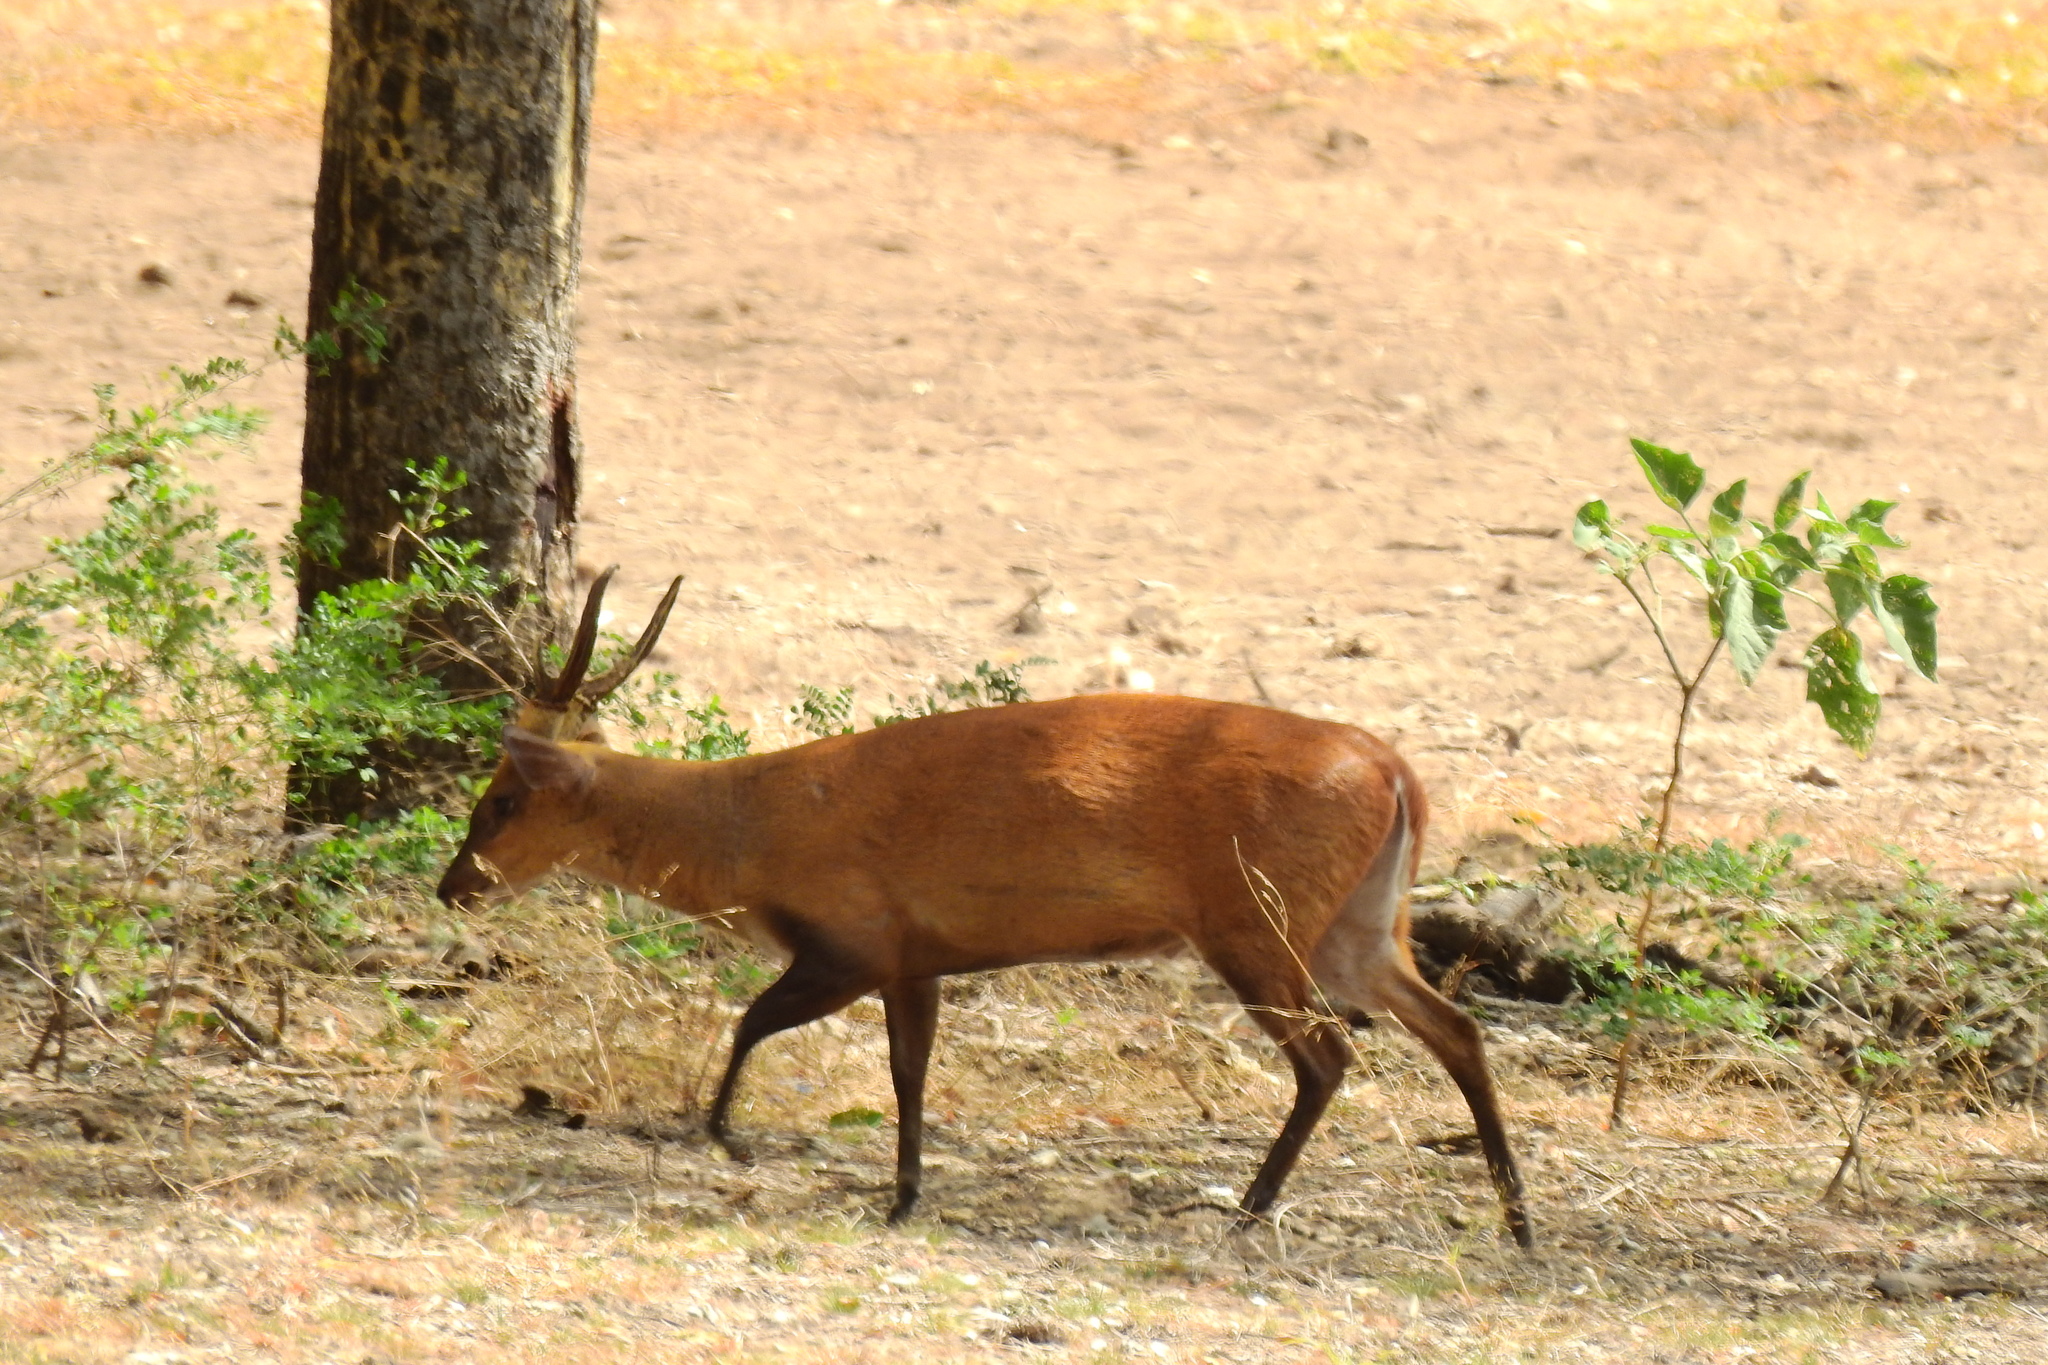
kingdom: Animalia
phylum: Chordata
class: Mammalia
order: Artiodactyla
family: Cervidae
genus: Muntiacus
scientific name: Muntiacus muntjak
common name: Indian muntjac
